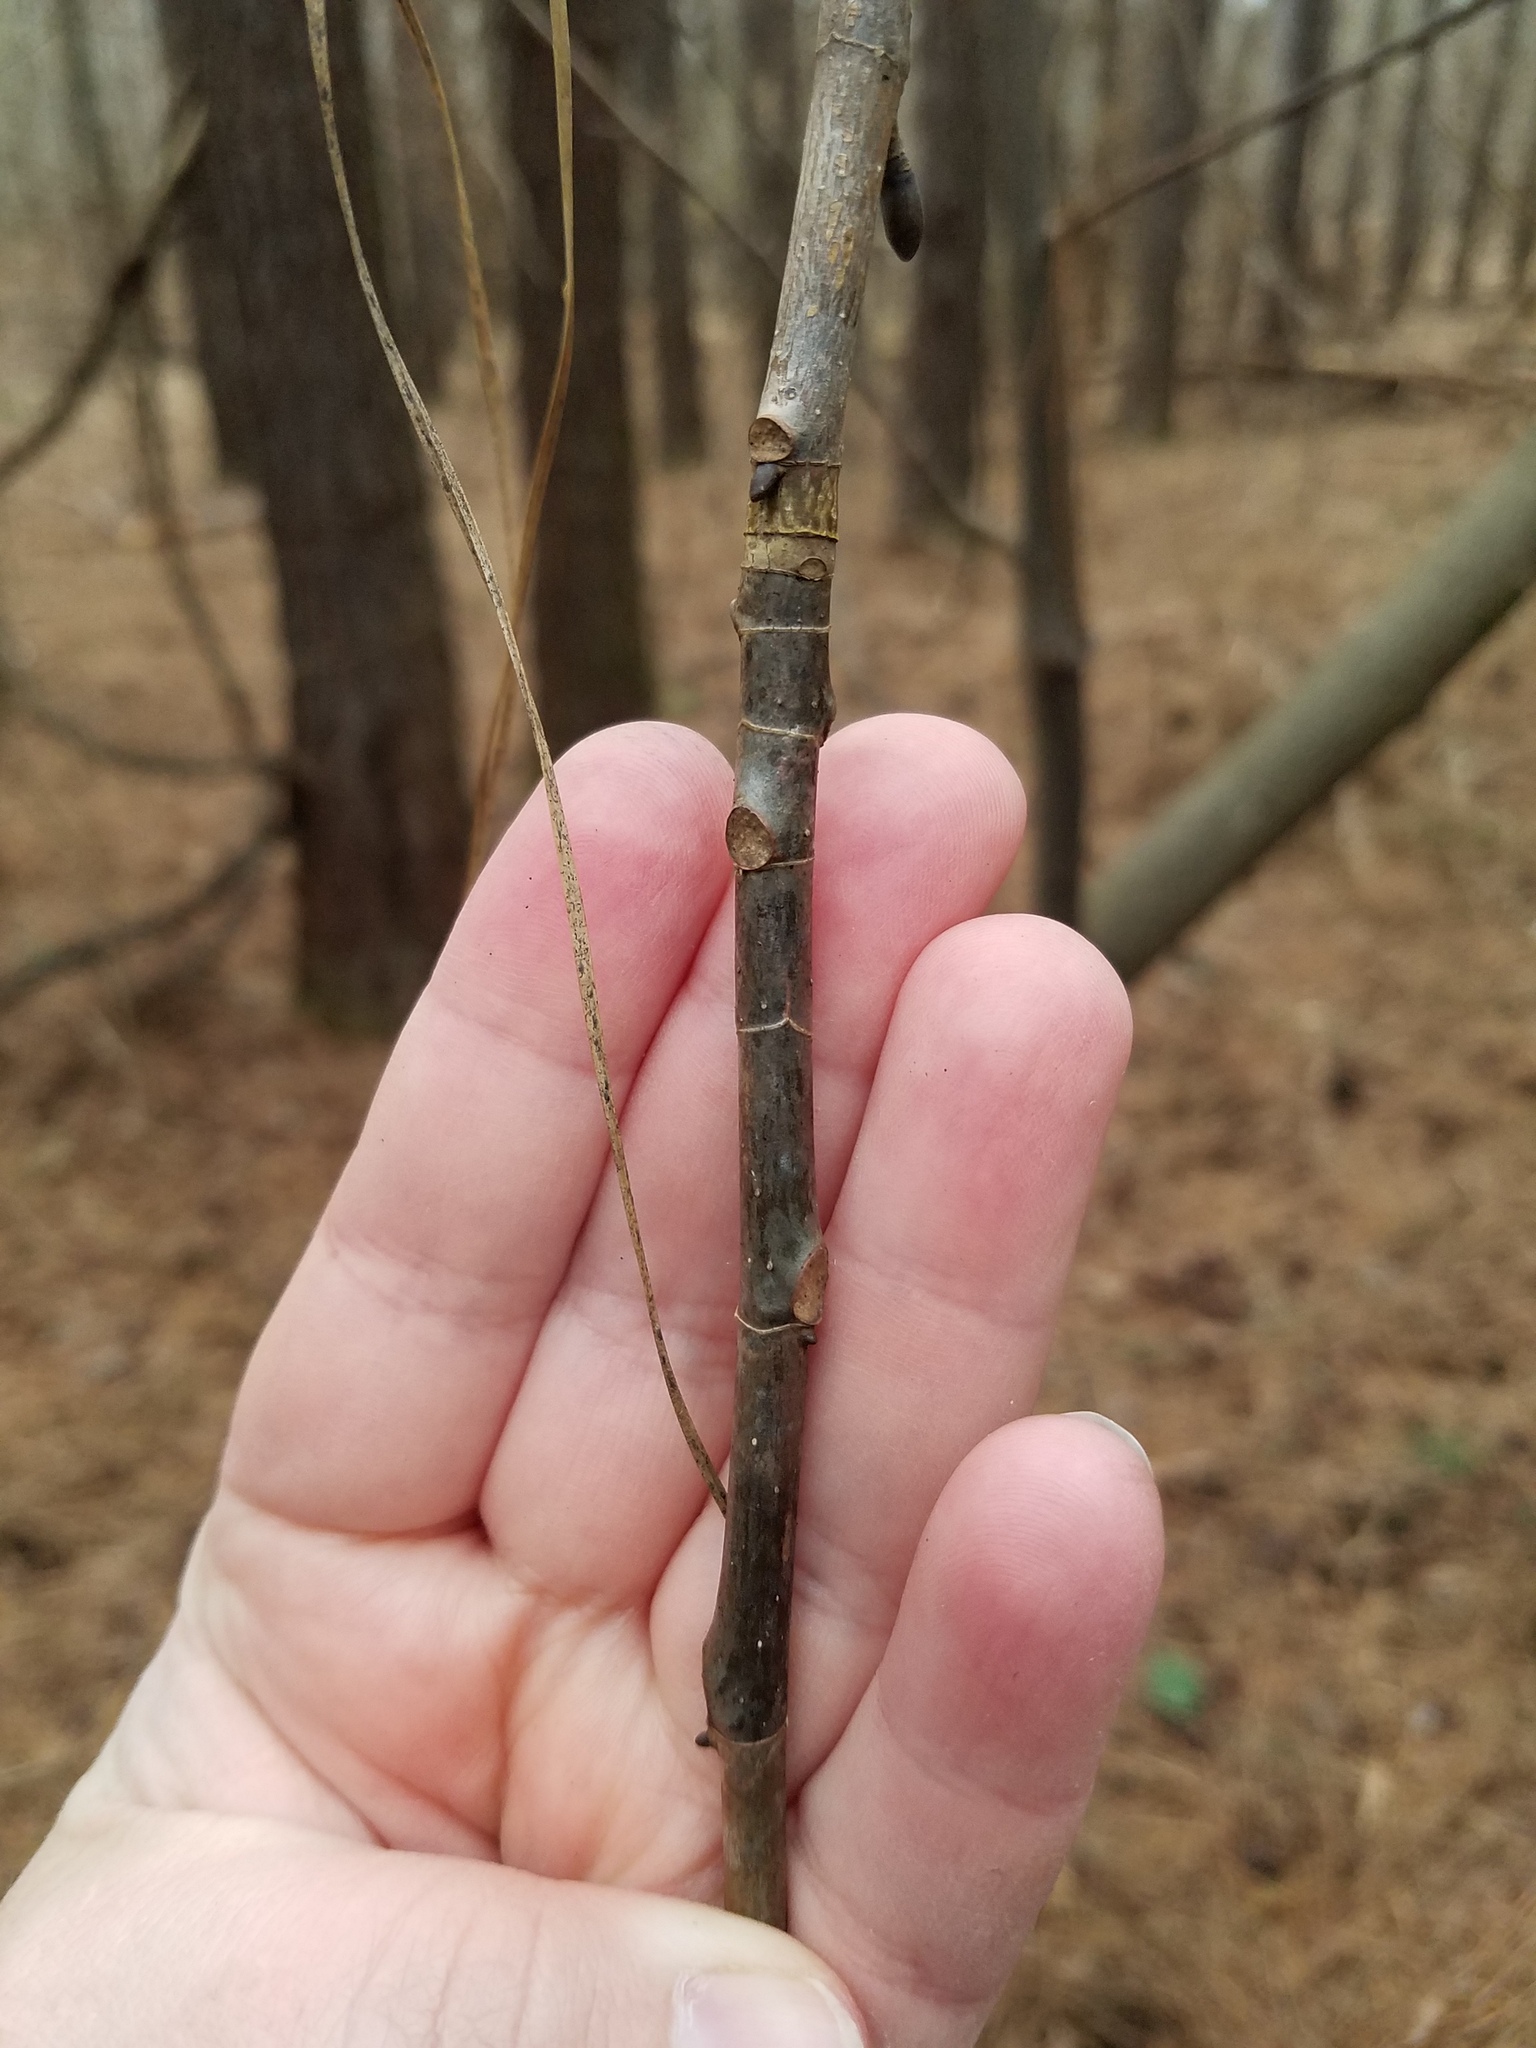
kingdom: Plantae
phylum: Tracheophyta
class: Magnoliopsida
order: Magnoliales
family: Magnoliaceae
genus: Liriodendron
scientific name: Liriodendron tulipifera
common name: Tulip tree
